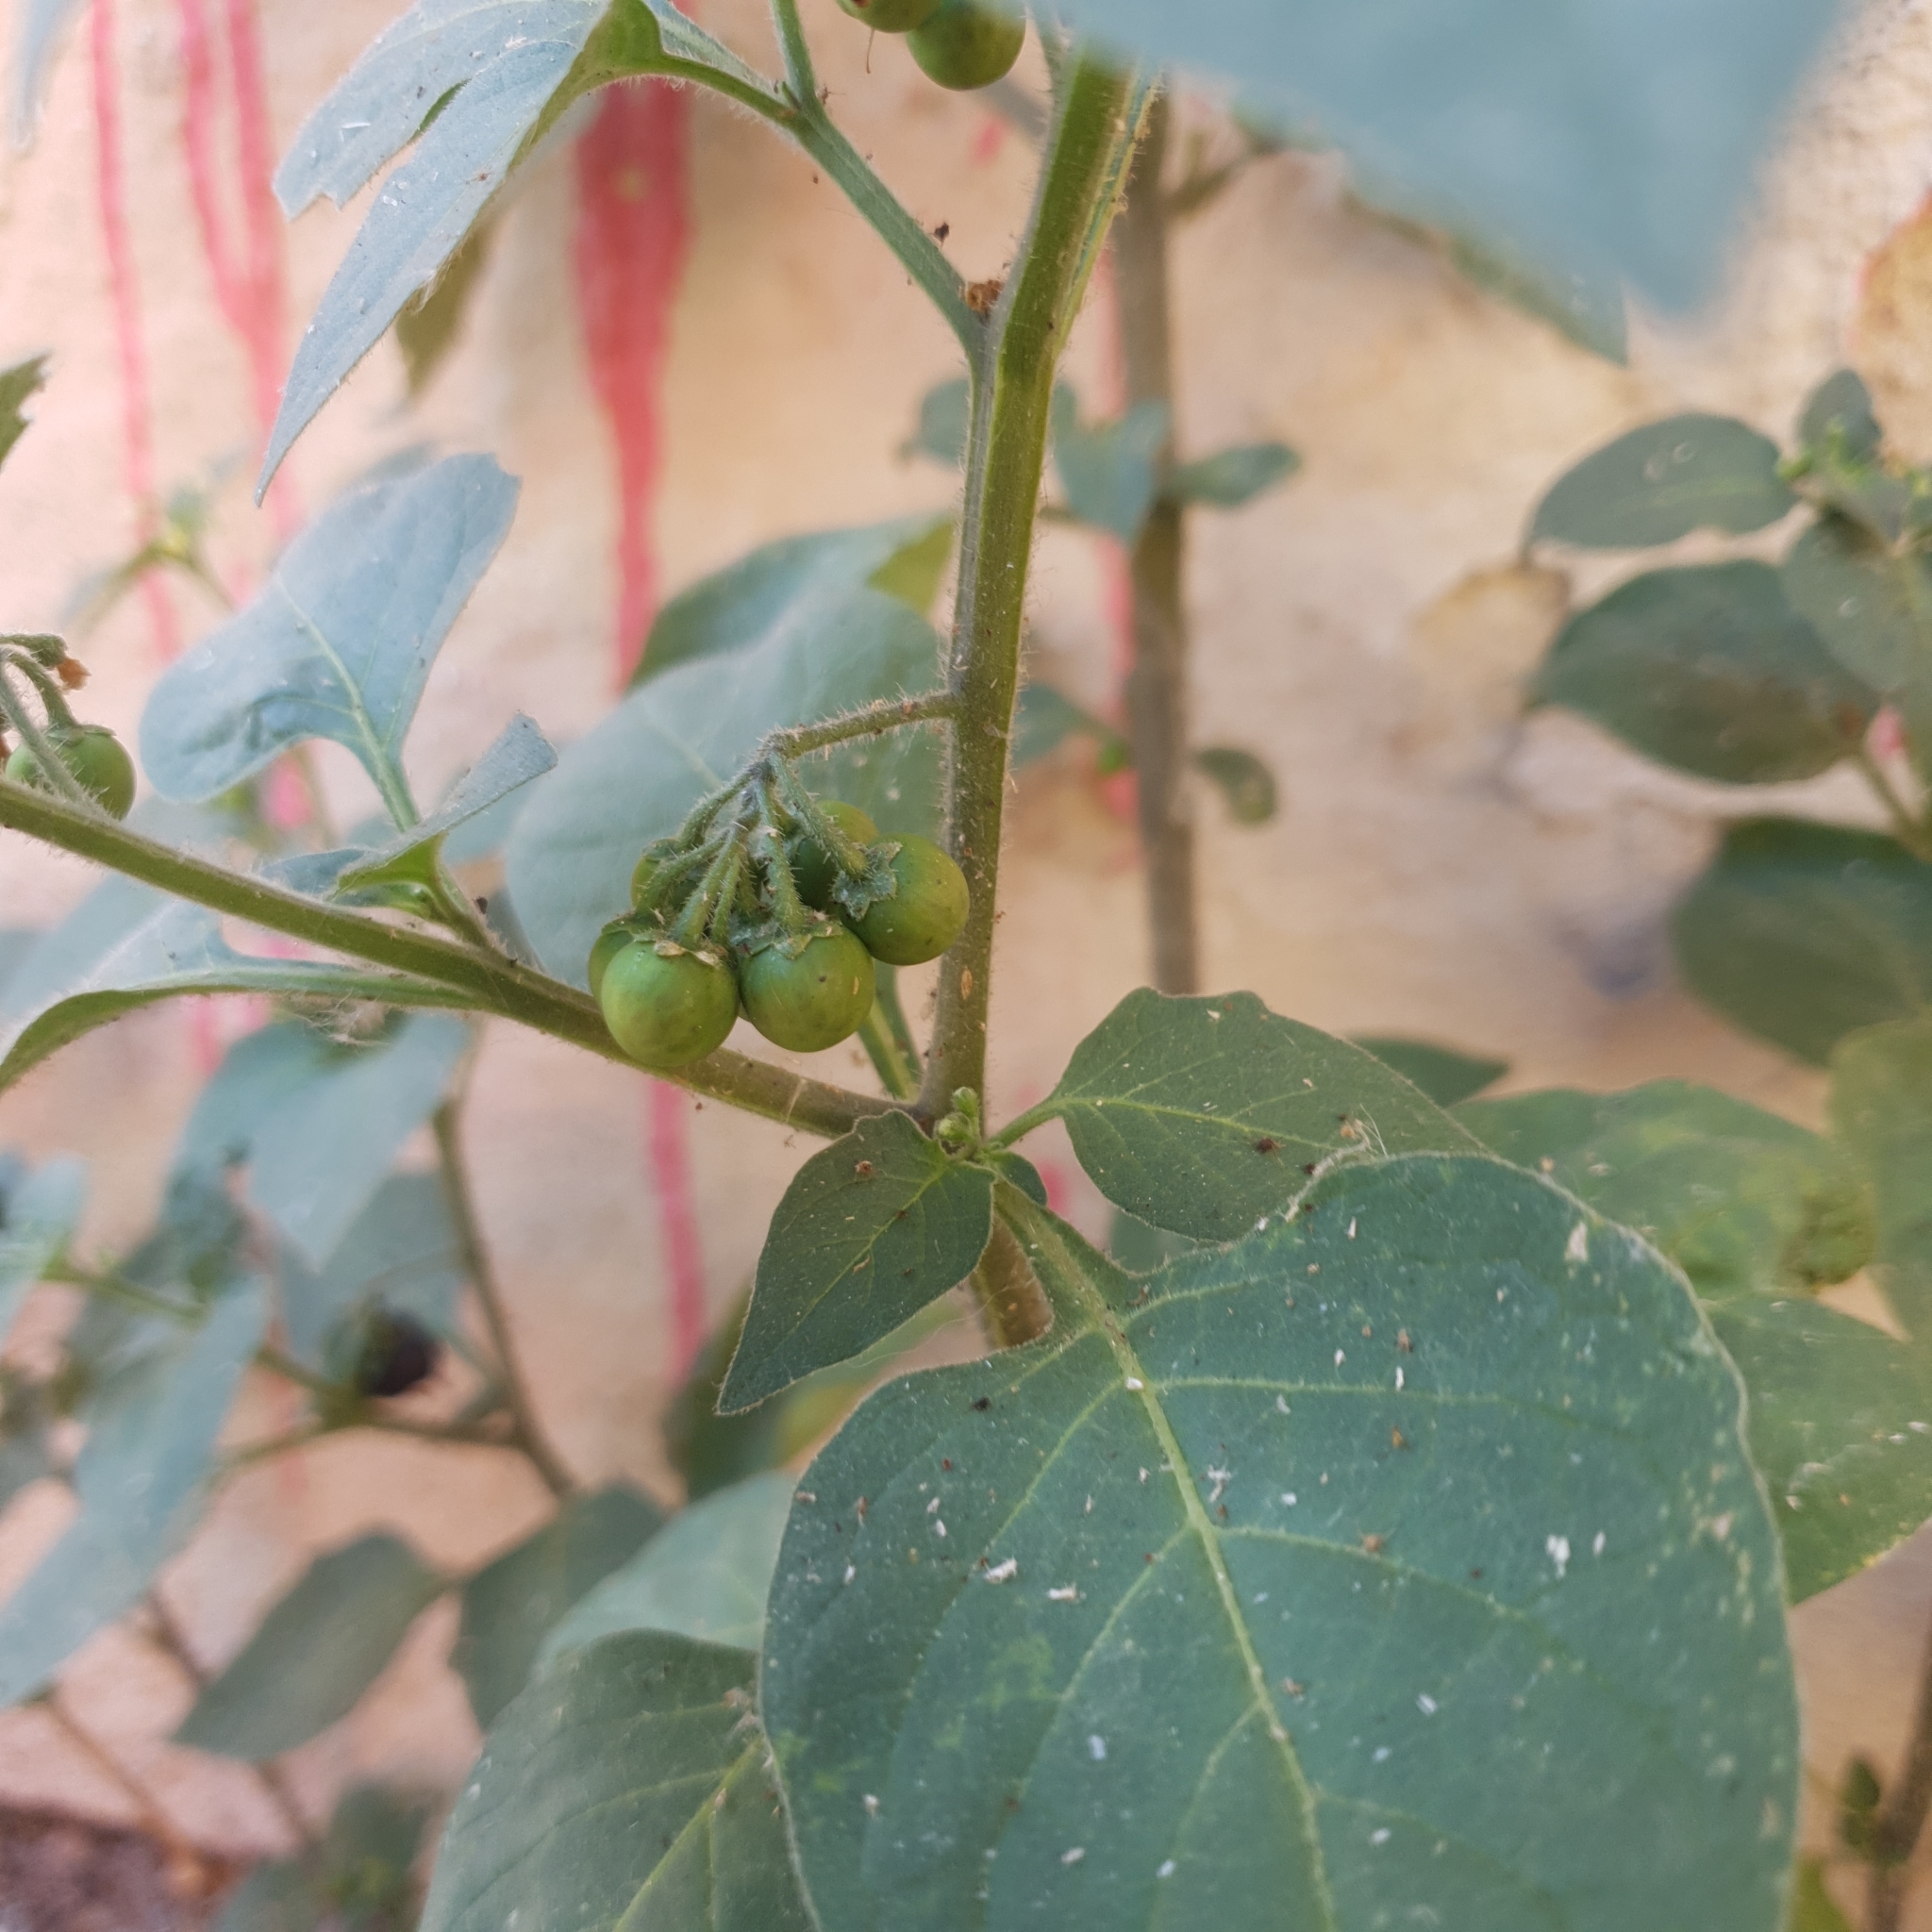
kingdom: Plantae
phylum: Tracheophyta
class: Magnoliopsida
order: Solanales
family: Solanaceae
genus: Solanum
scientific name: Solanum nigrum
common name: Black nightshade
